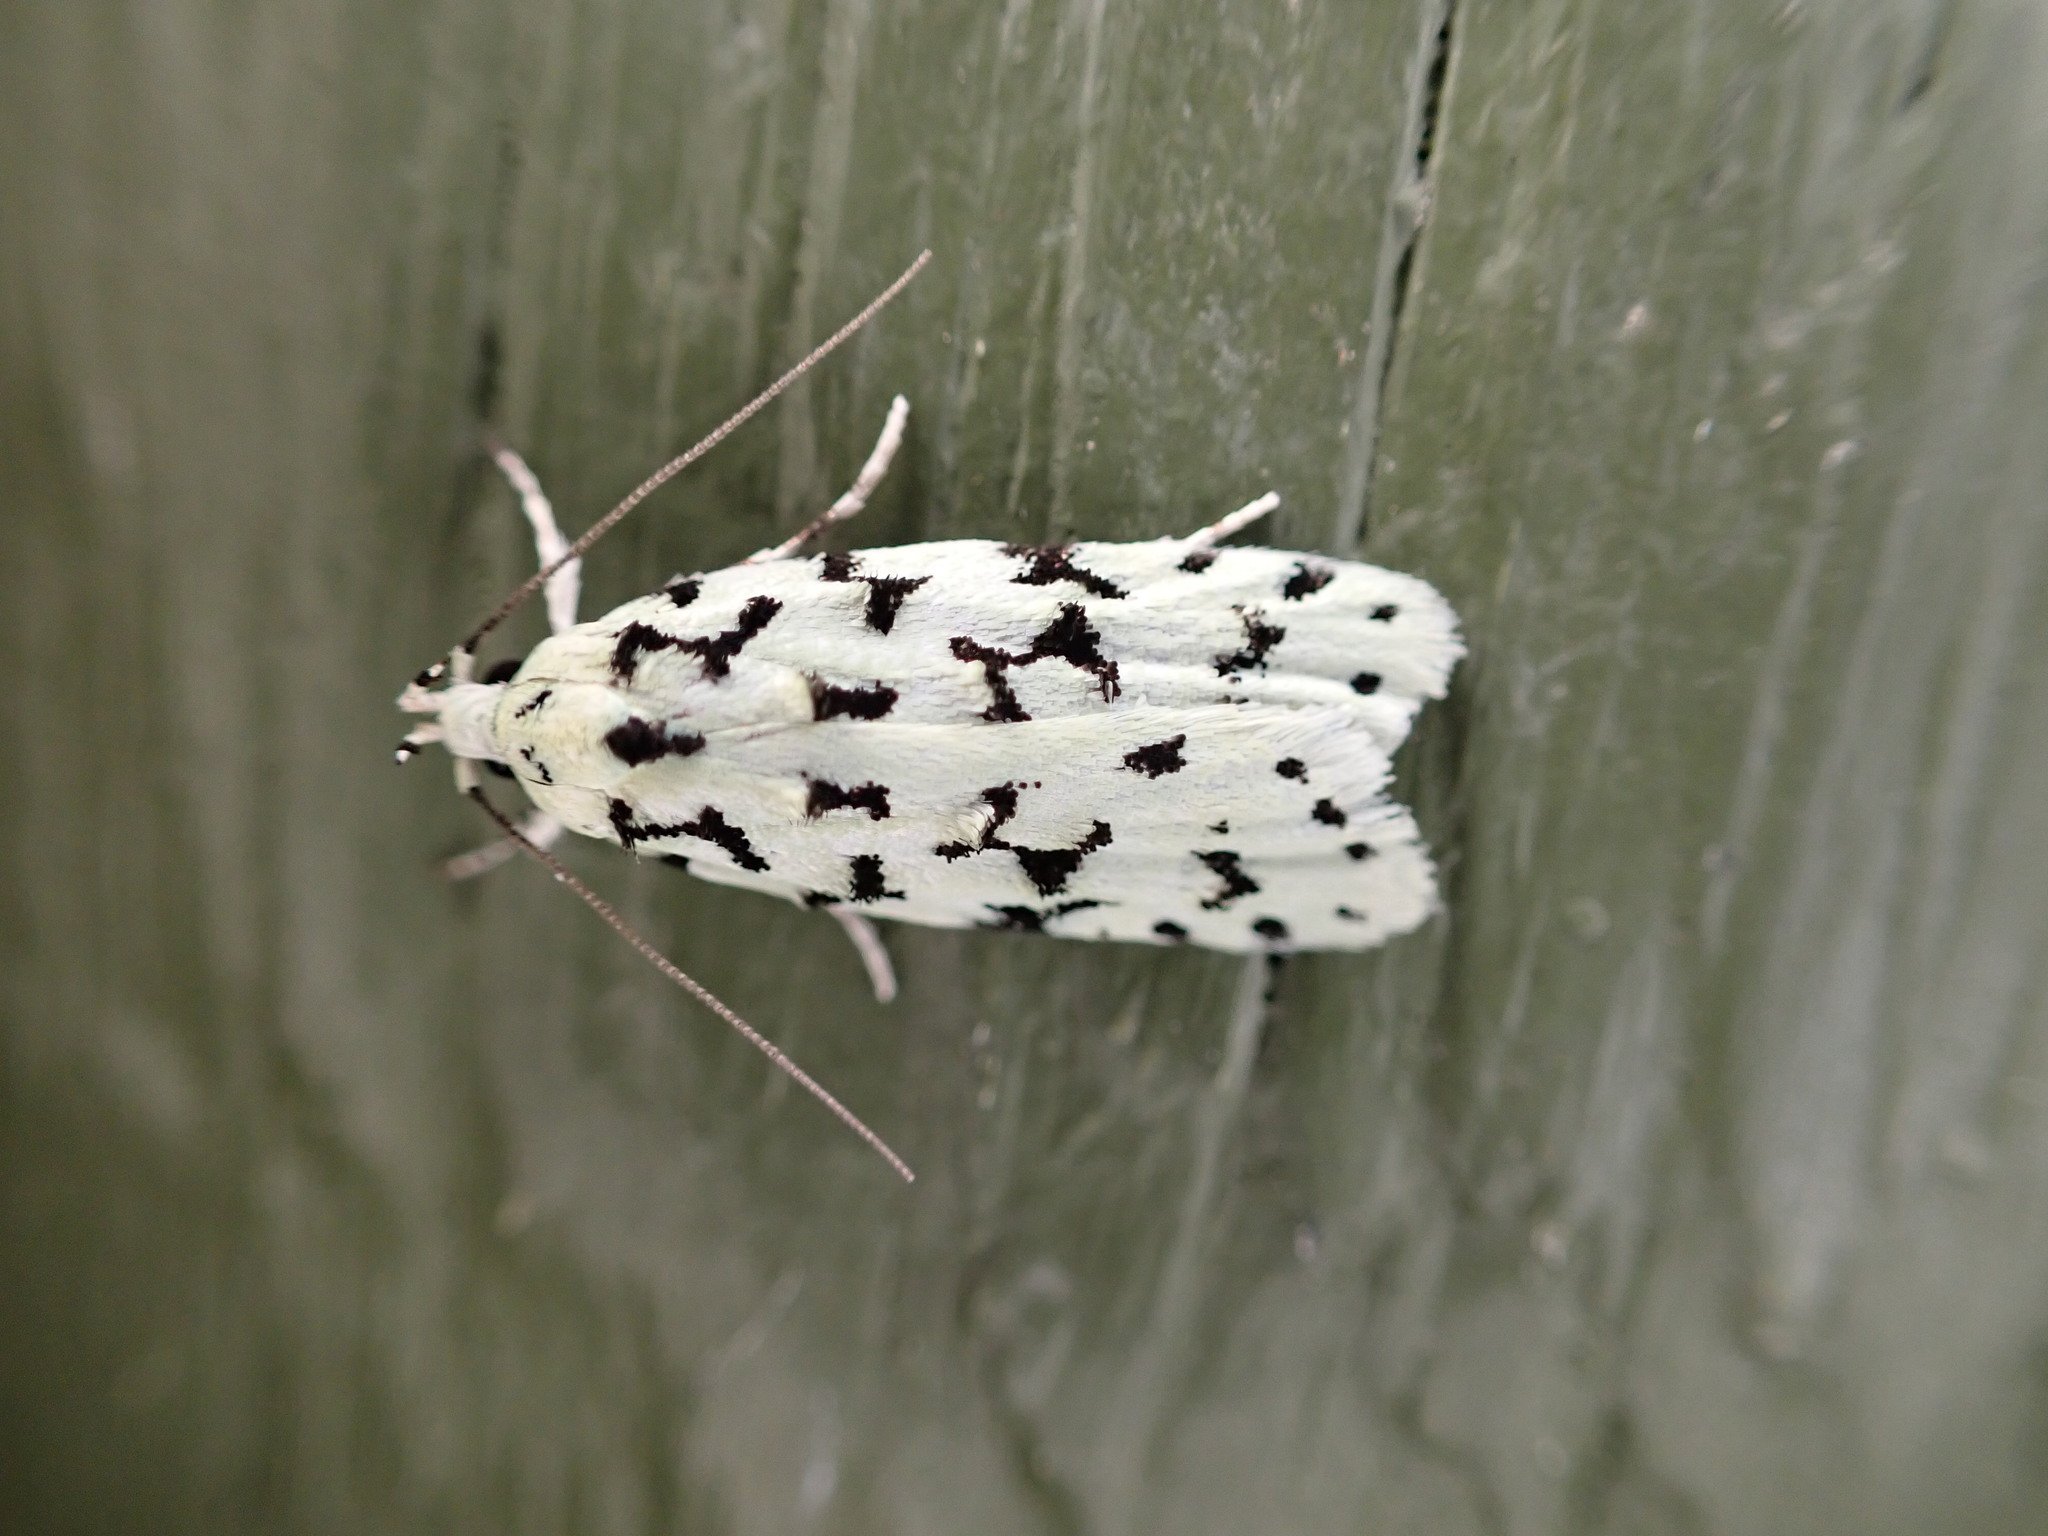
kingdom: Animalia
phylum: Arthropoda
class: Insecta
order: Lepidoptera
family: Oecophoridae
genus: Izatha
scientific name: Izatha huttoni
